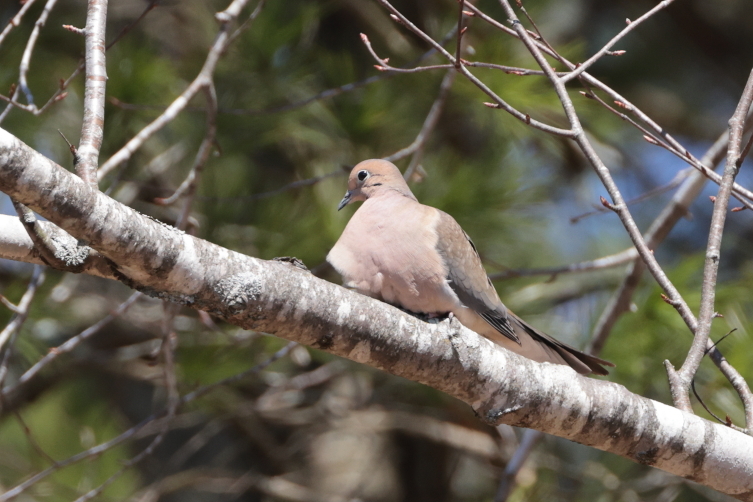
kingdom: Animalia
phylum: Chordata
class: Aves
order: Columbiformes
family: Columbidae
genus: Zenaida
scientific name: Zenaida macroura
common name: Mourning dove
